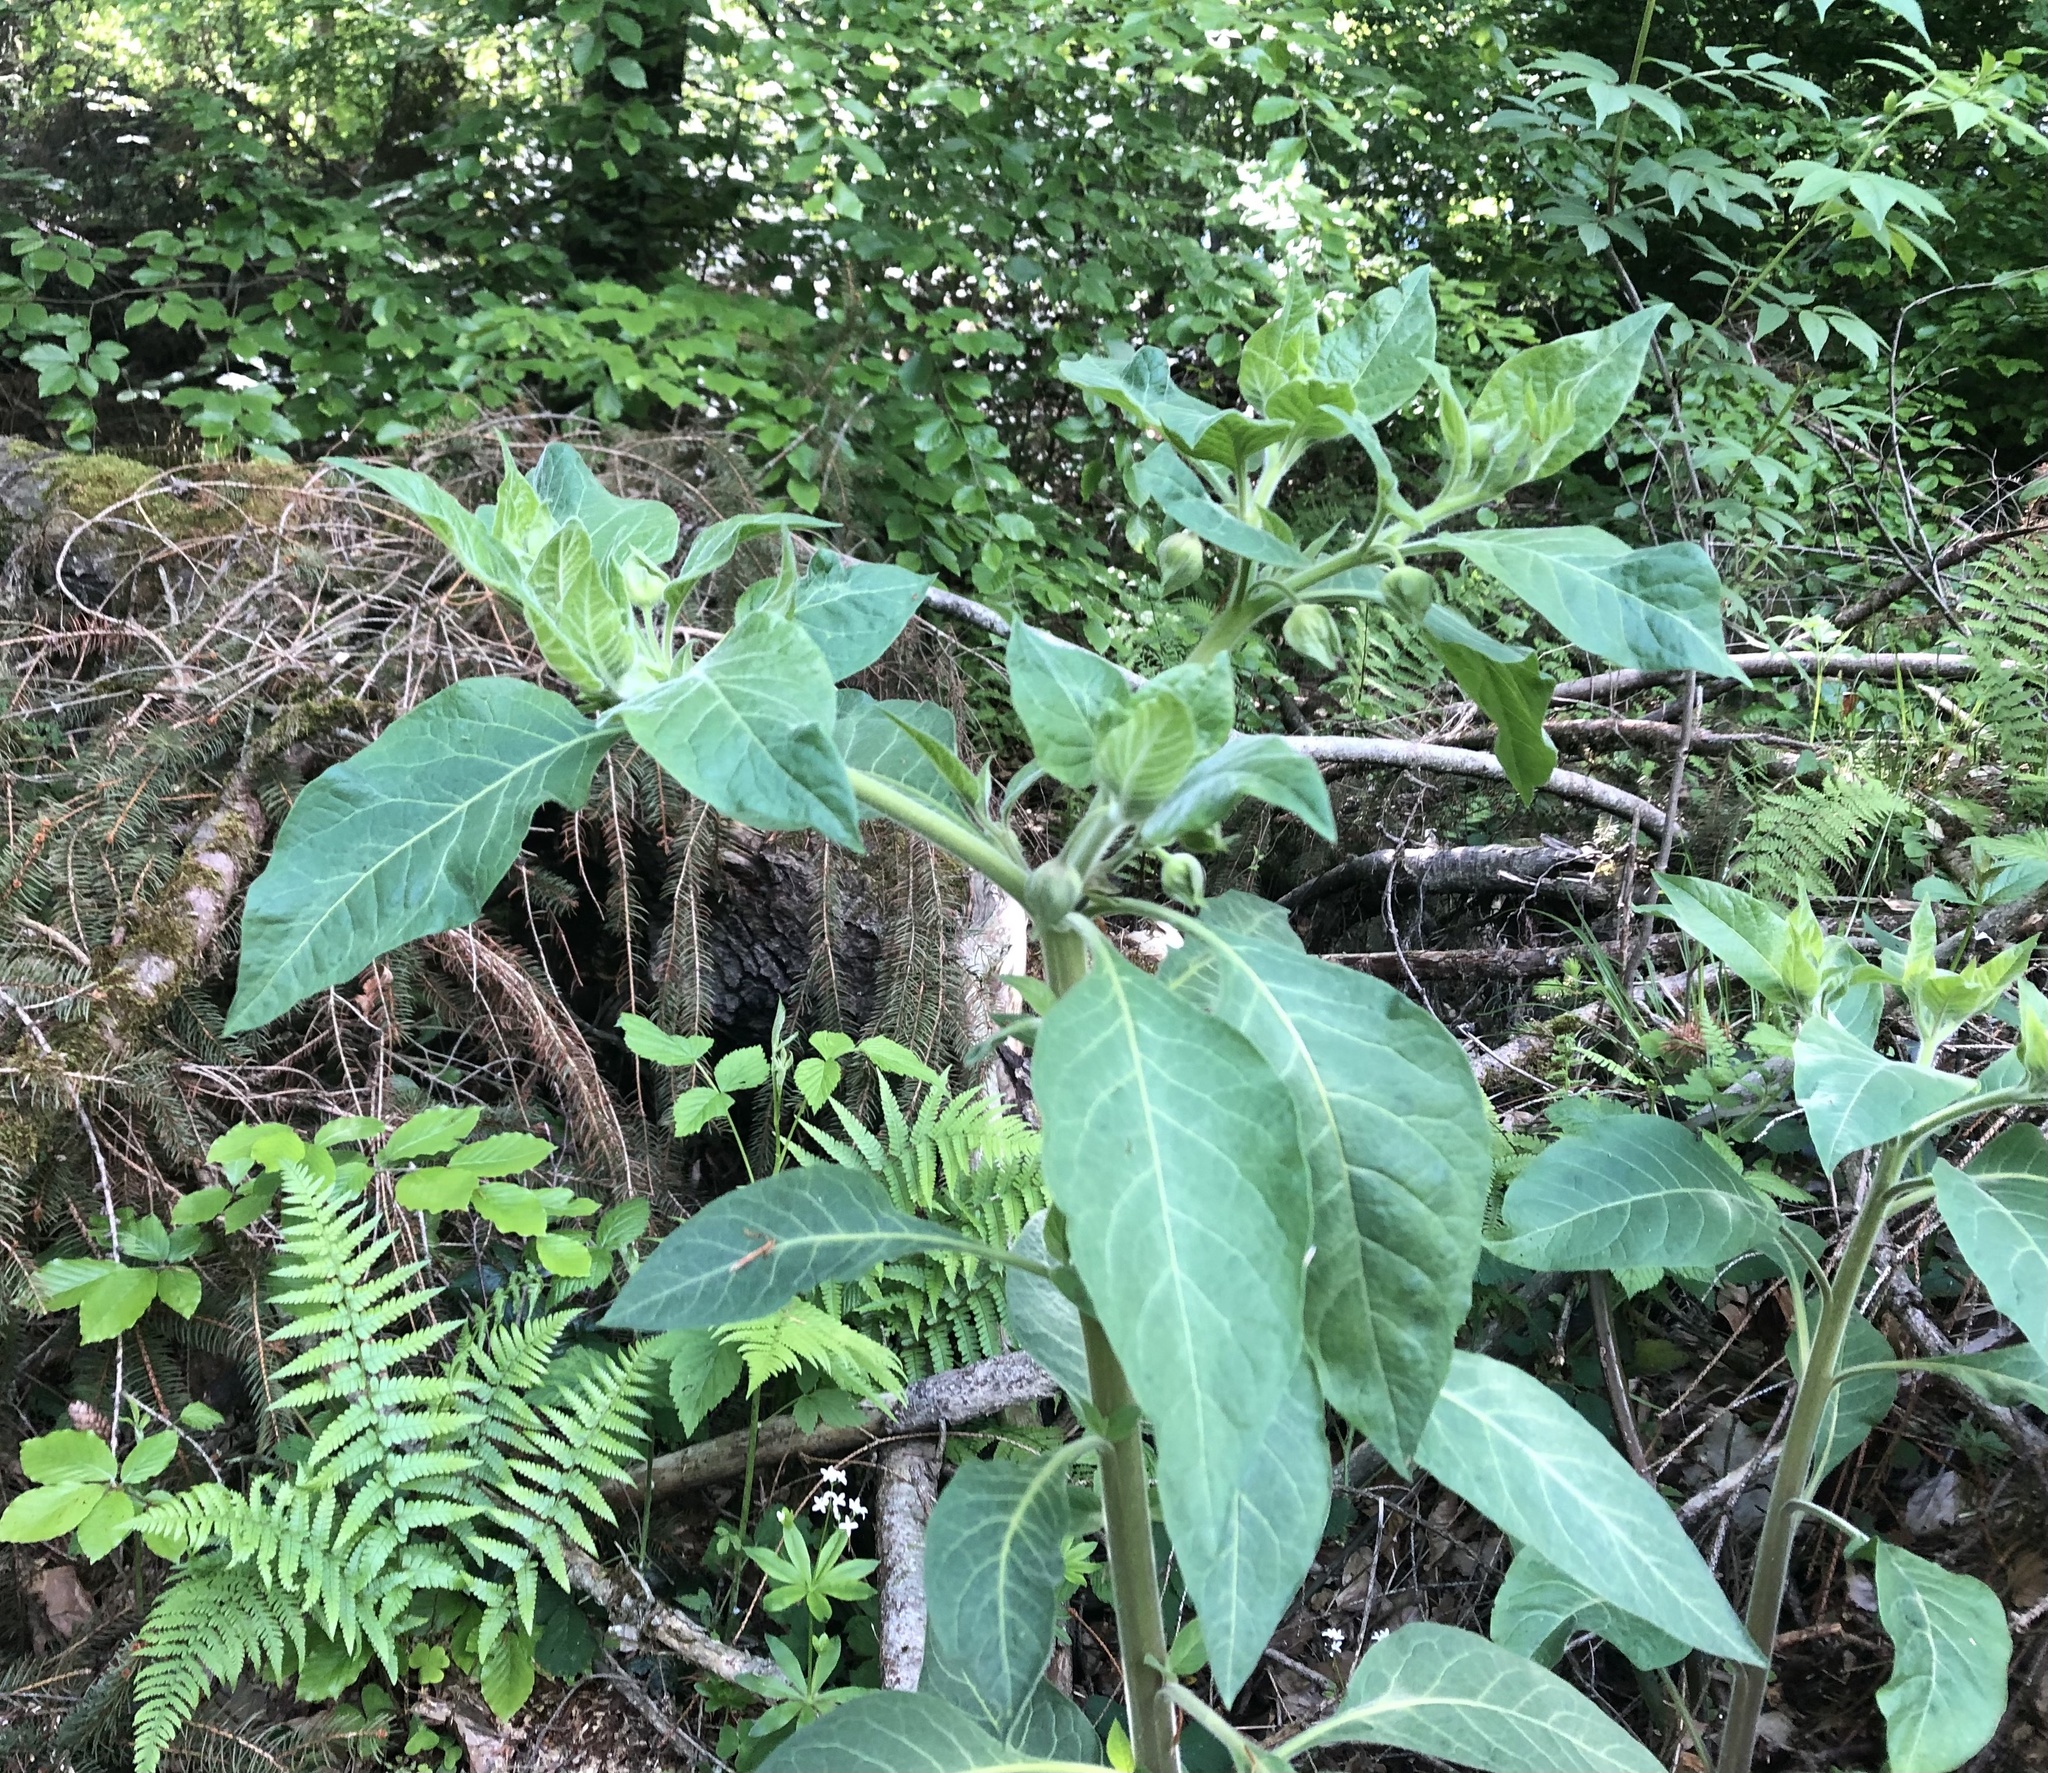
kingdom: Plantae
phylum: Tracheophyta
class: Magnoliopsida
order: Solanales
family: Solanaceae
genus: Atropa
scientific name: Atropa belladonna
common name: Deadly nightshade
